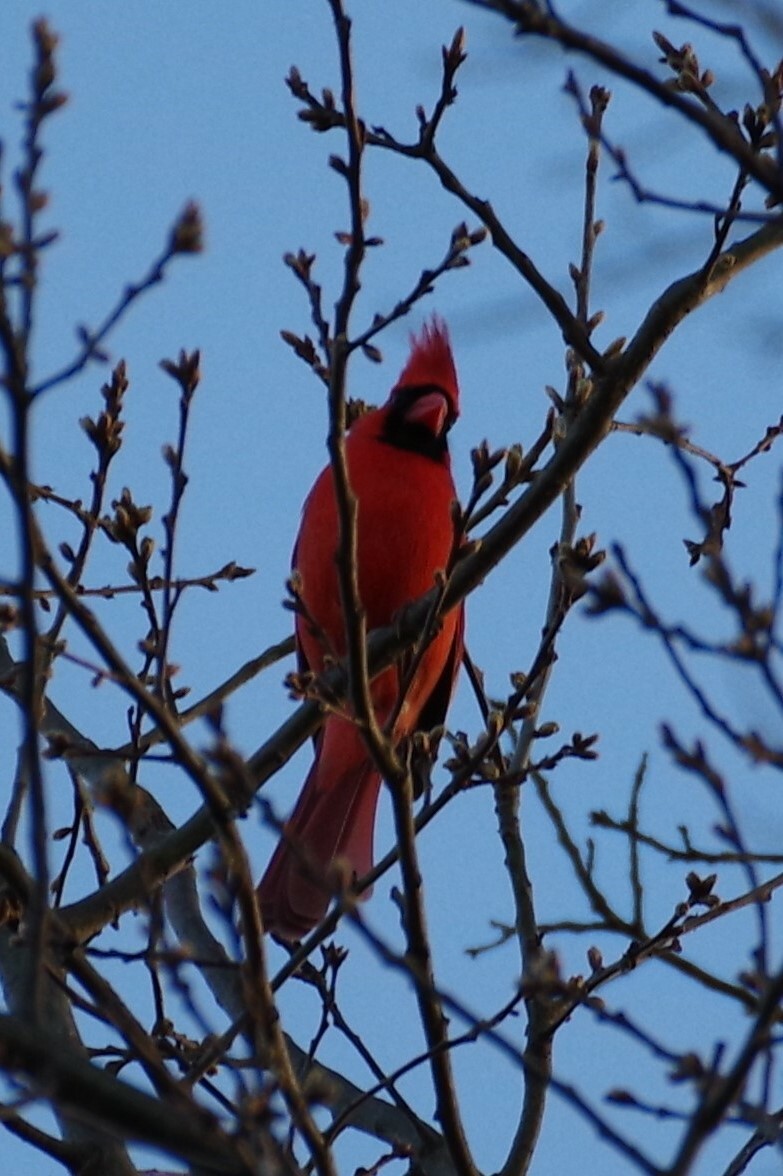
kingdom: Animalia
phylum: Chordata
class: Aves
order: Passeriformes
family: Cardinalidae
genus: Cardinalis
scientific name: Cardinalis cardinalis
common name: Northern cardinal
